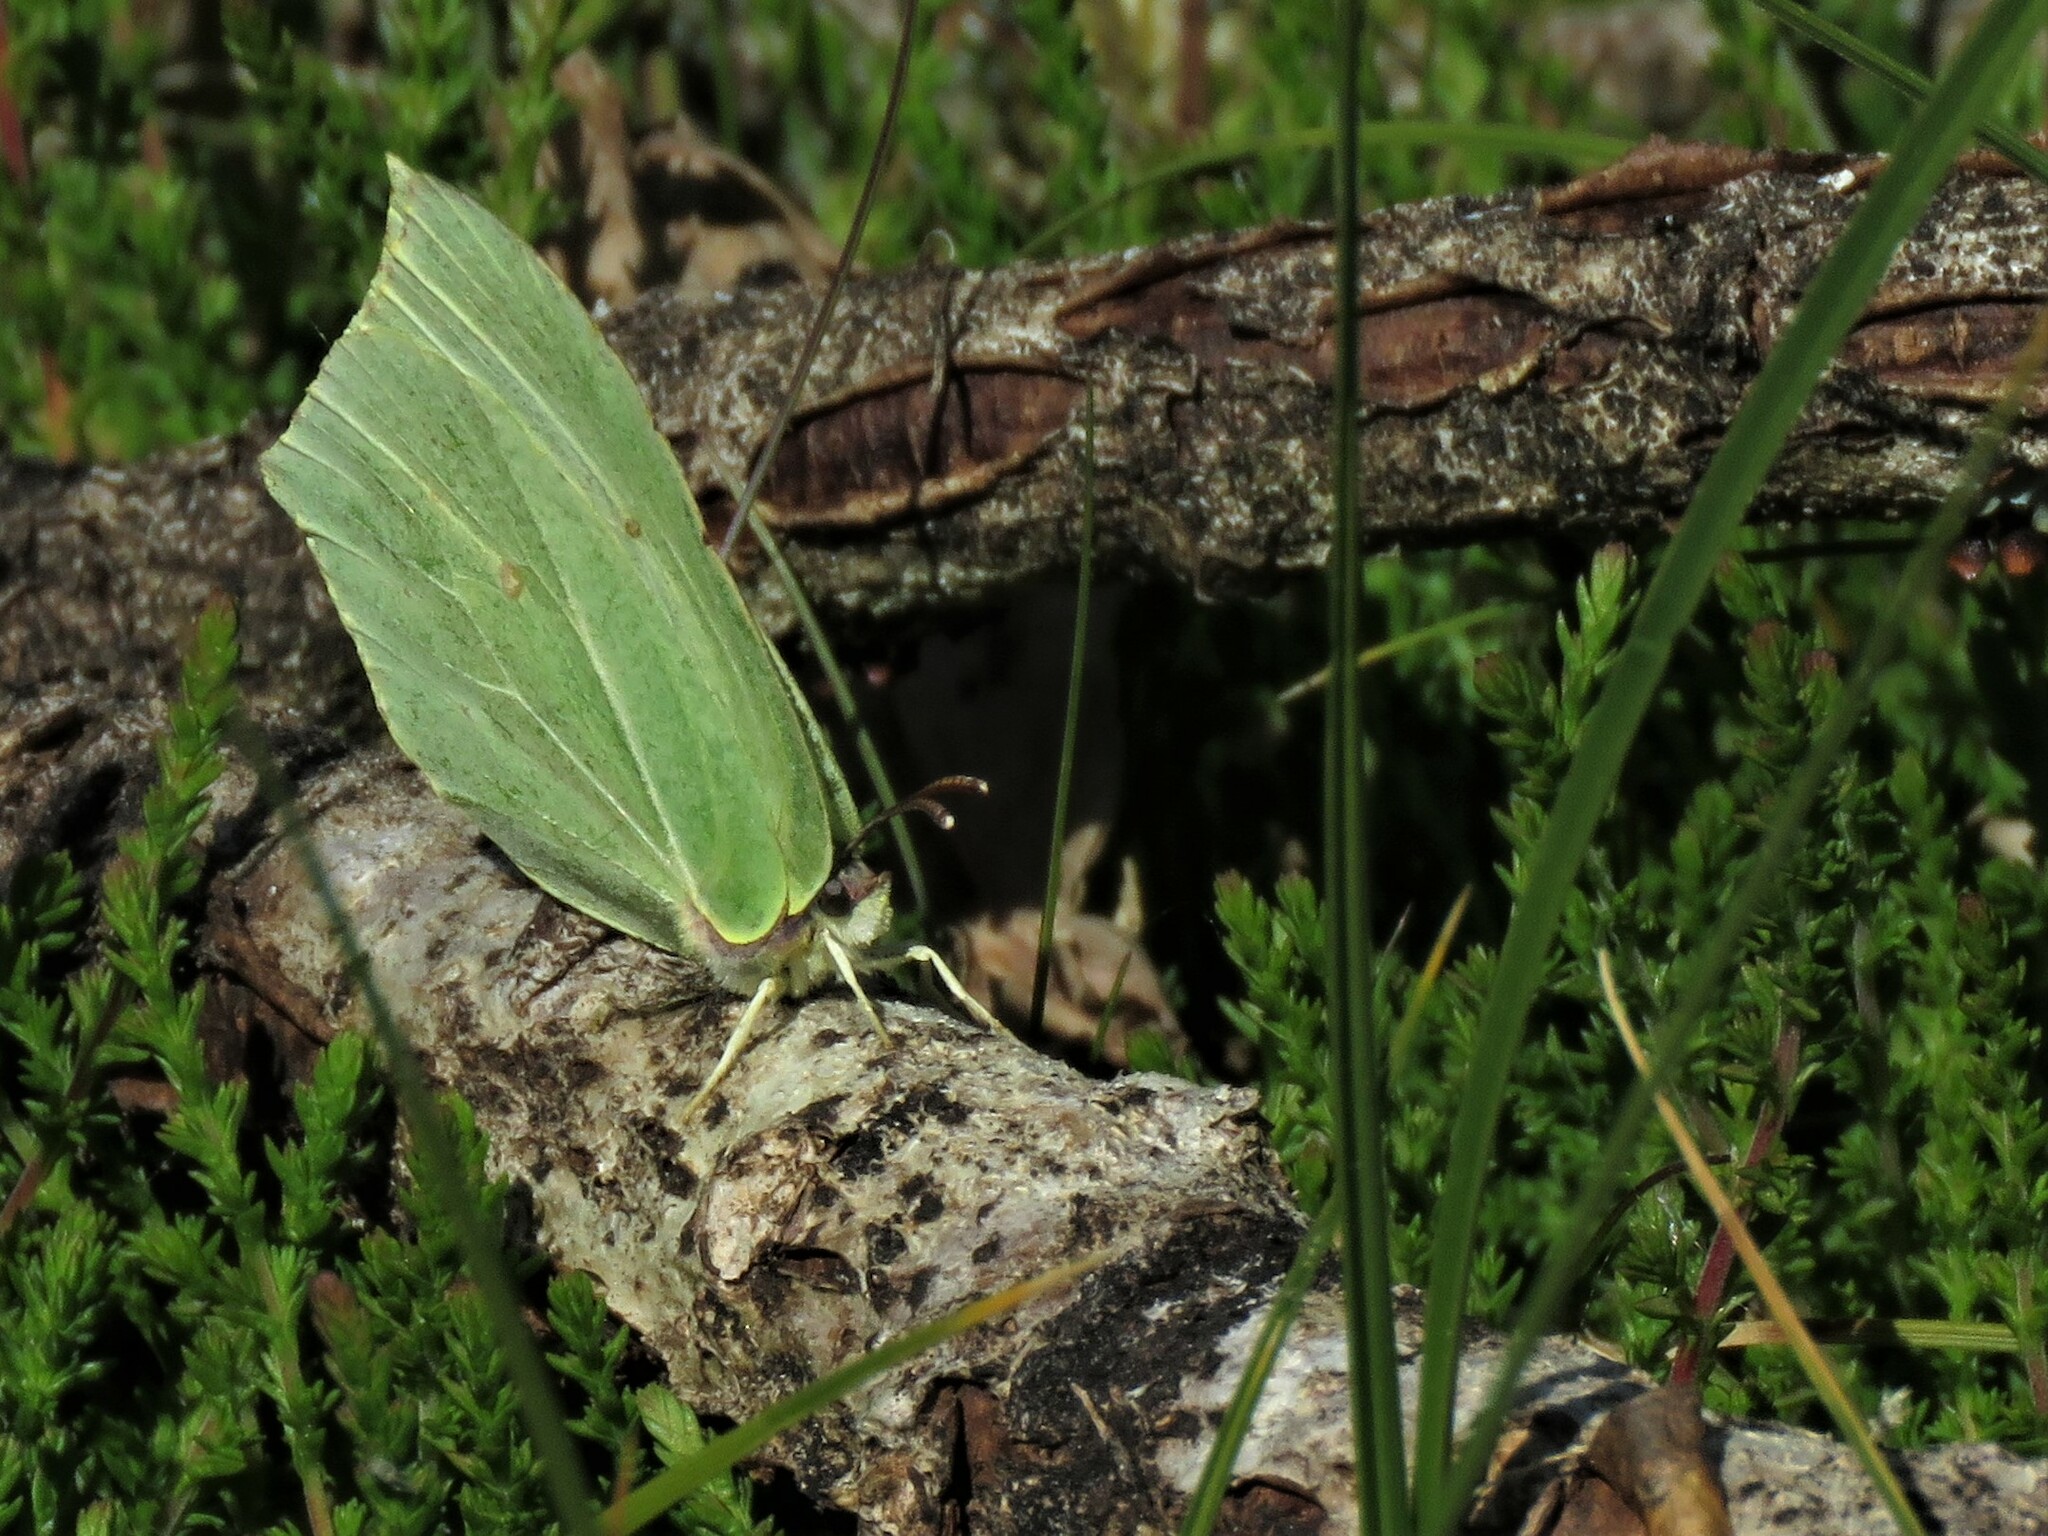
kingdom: Animalia
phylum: Arthropoda
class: Insecta
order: Lepidoptera
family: Pieridae
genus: Gonepteryx
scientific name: Gonepteryx rhamni
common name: Brimstone
